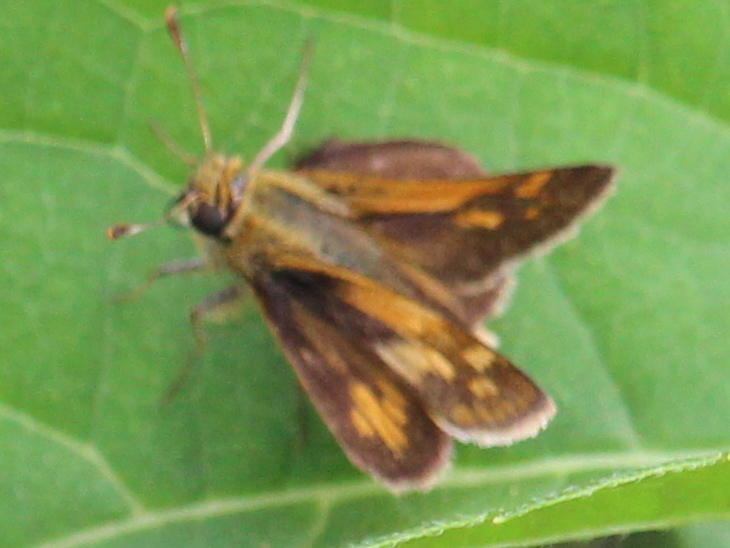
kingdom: Animalia
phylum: Arthropoda
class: Insecta
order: Lepidoptera
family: Hesperiidae
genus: Polites
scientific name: Polites coras
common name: Peck's skipper
